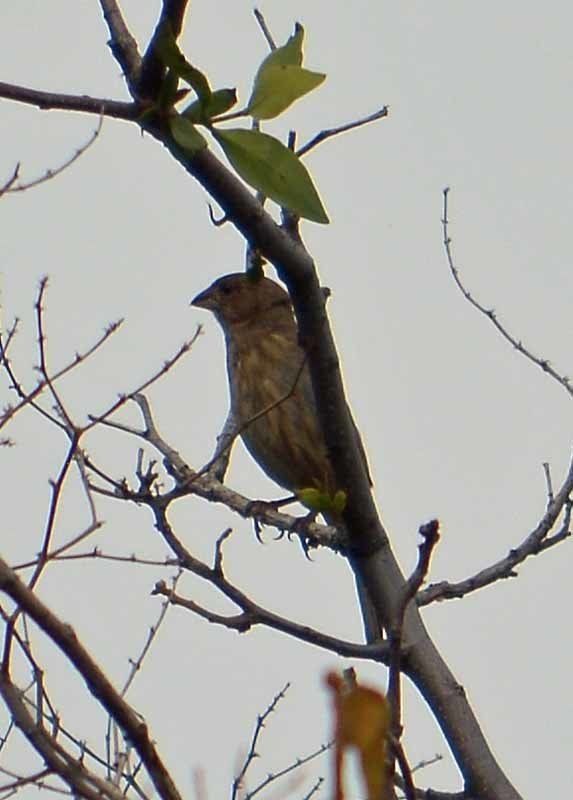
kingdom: Animalia
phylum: Chordata
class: Aves
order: Passeriformes
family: Fringillidae
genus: Haemorhous
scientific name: Haemorhous mexicanus
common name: House finch
